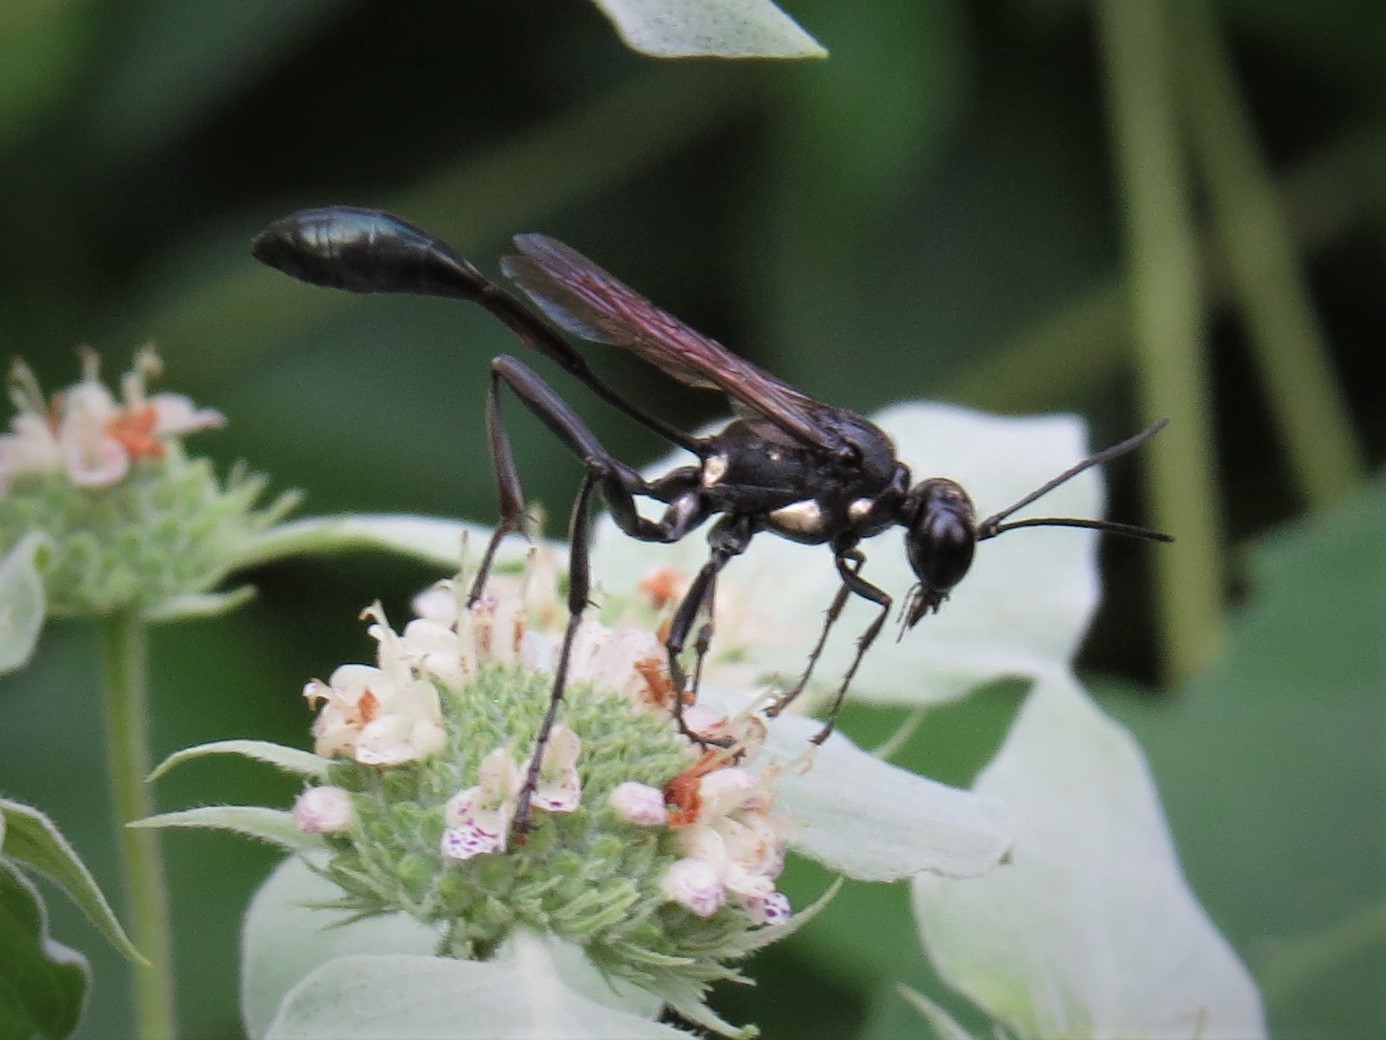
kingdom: Animalia
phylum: Arthropoda
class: Insecta
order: Hymenoptera
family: Sphecidae
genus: Eremnophila
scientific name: Eremnophila aureonotata
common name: Gold-marked thread-waisted wasp
